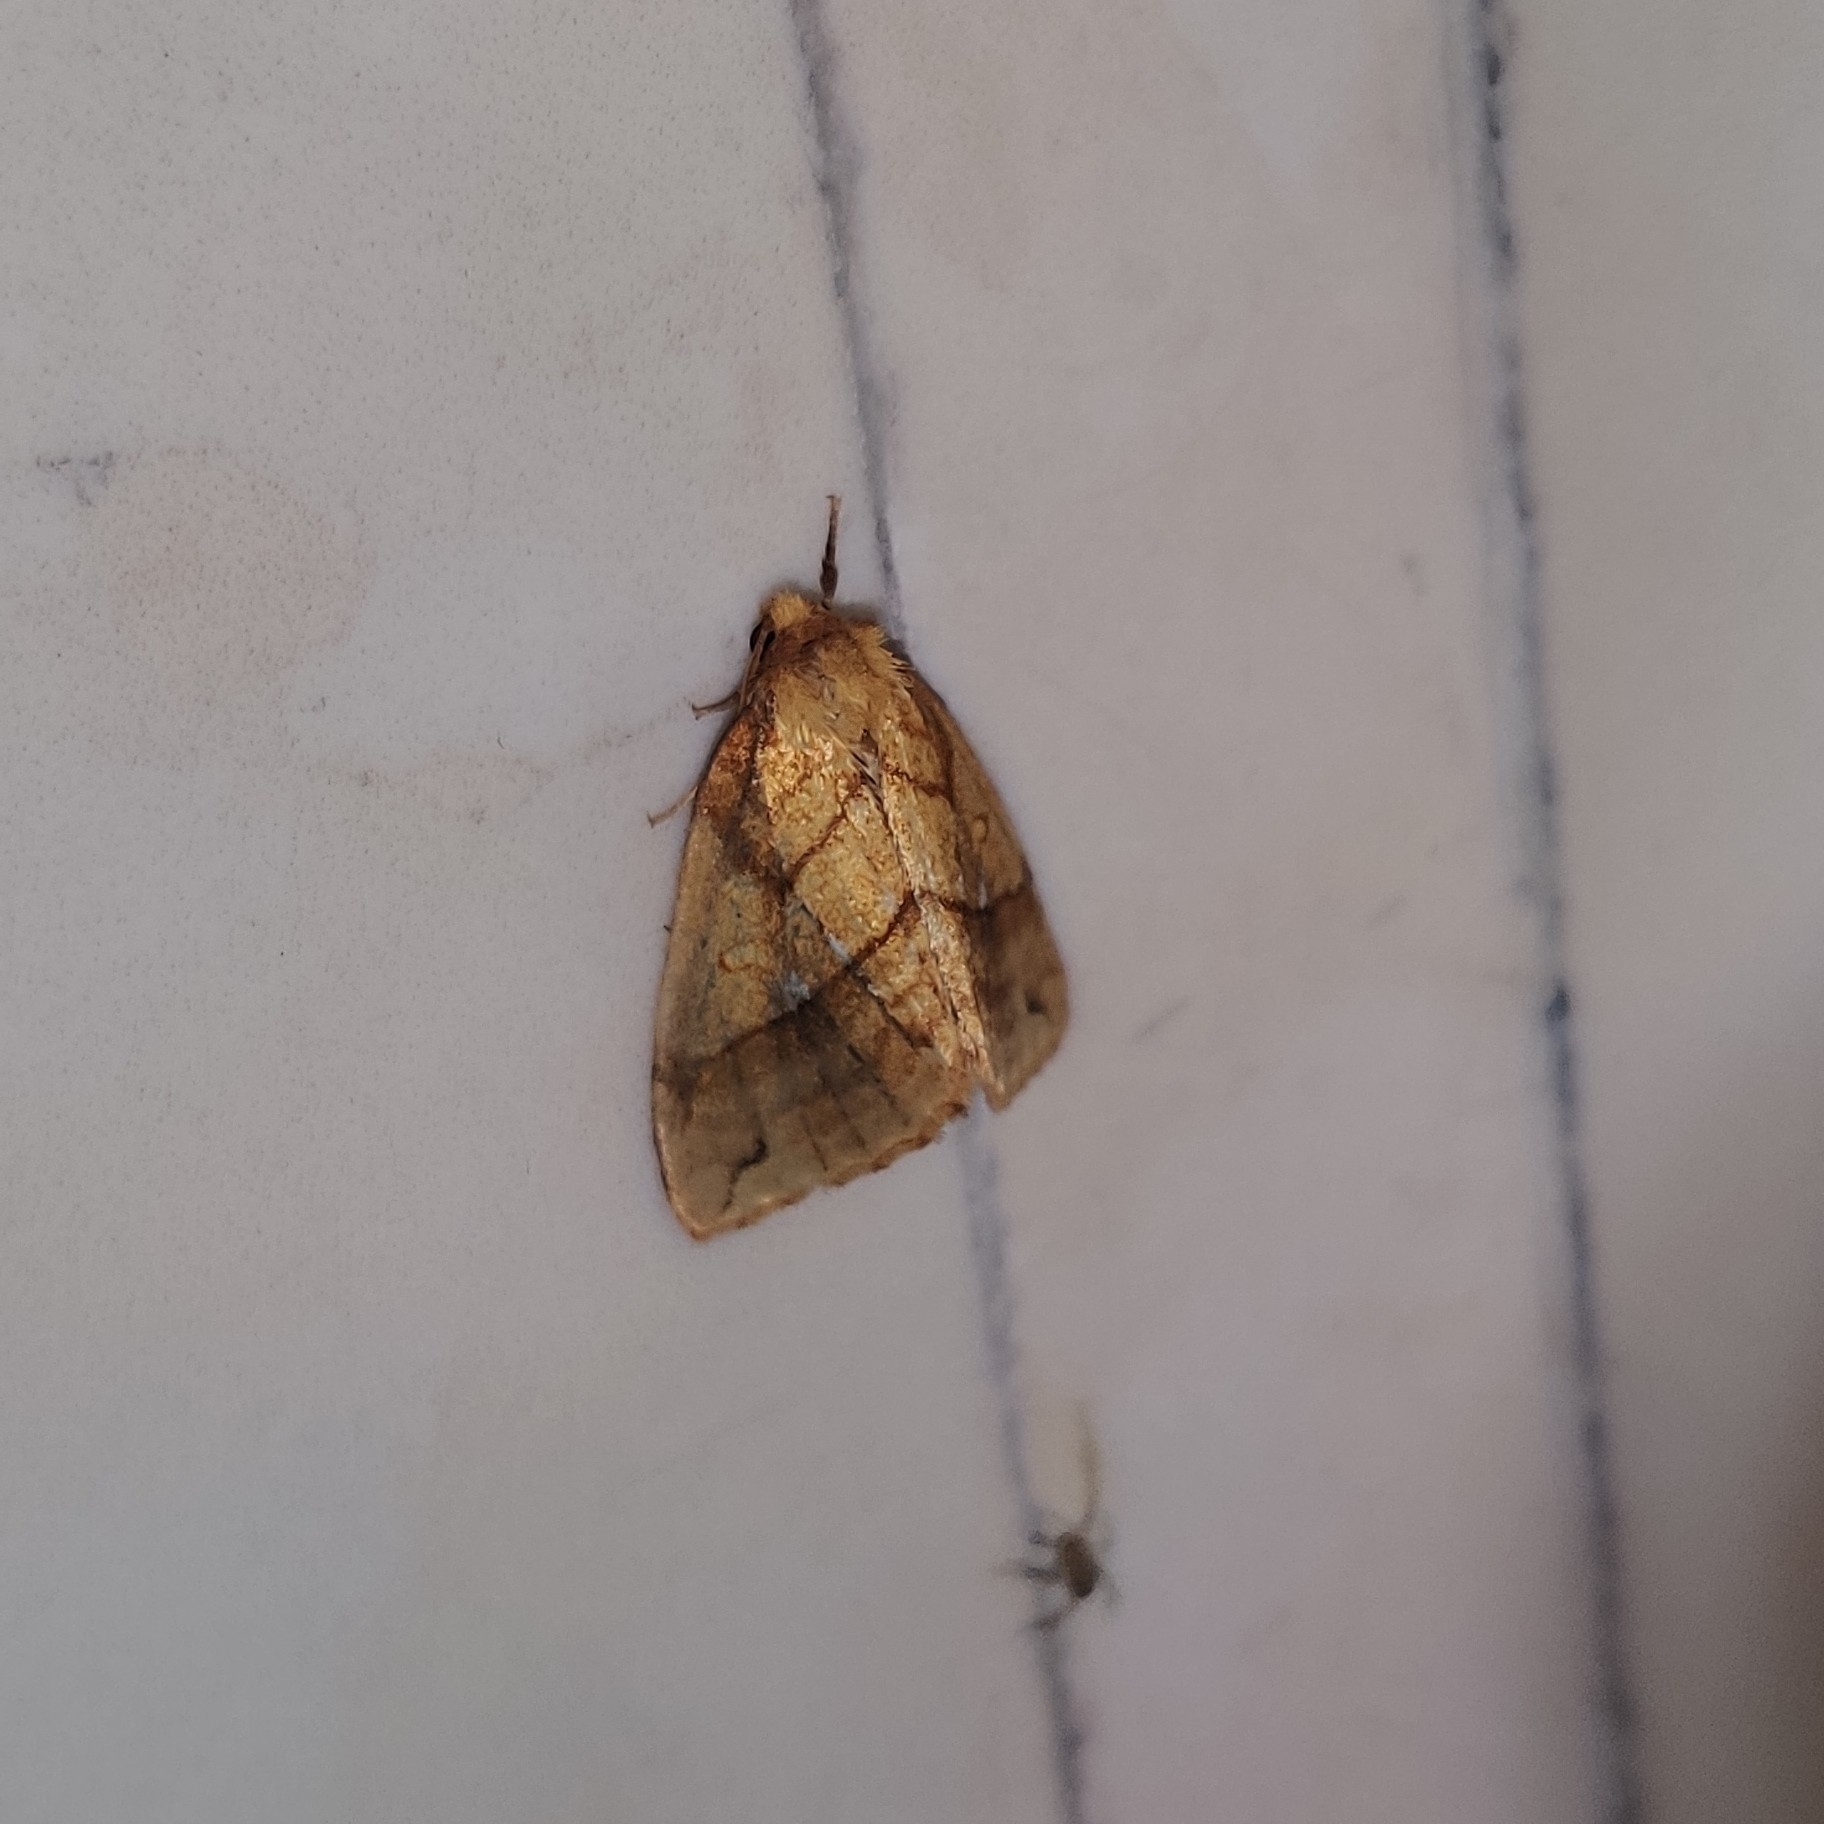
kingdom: Animalia
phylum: Arthropoda
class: Insecta
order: Lepidoptera
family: Noctuidae
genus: Xanthia
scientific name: Xanthia rectilineata
